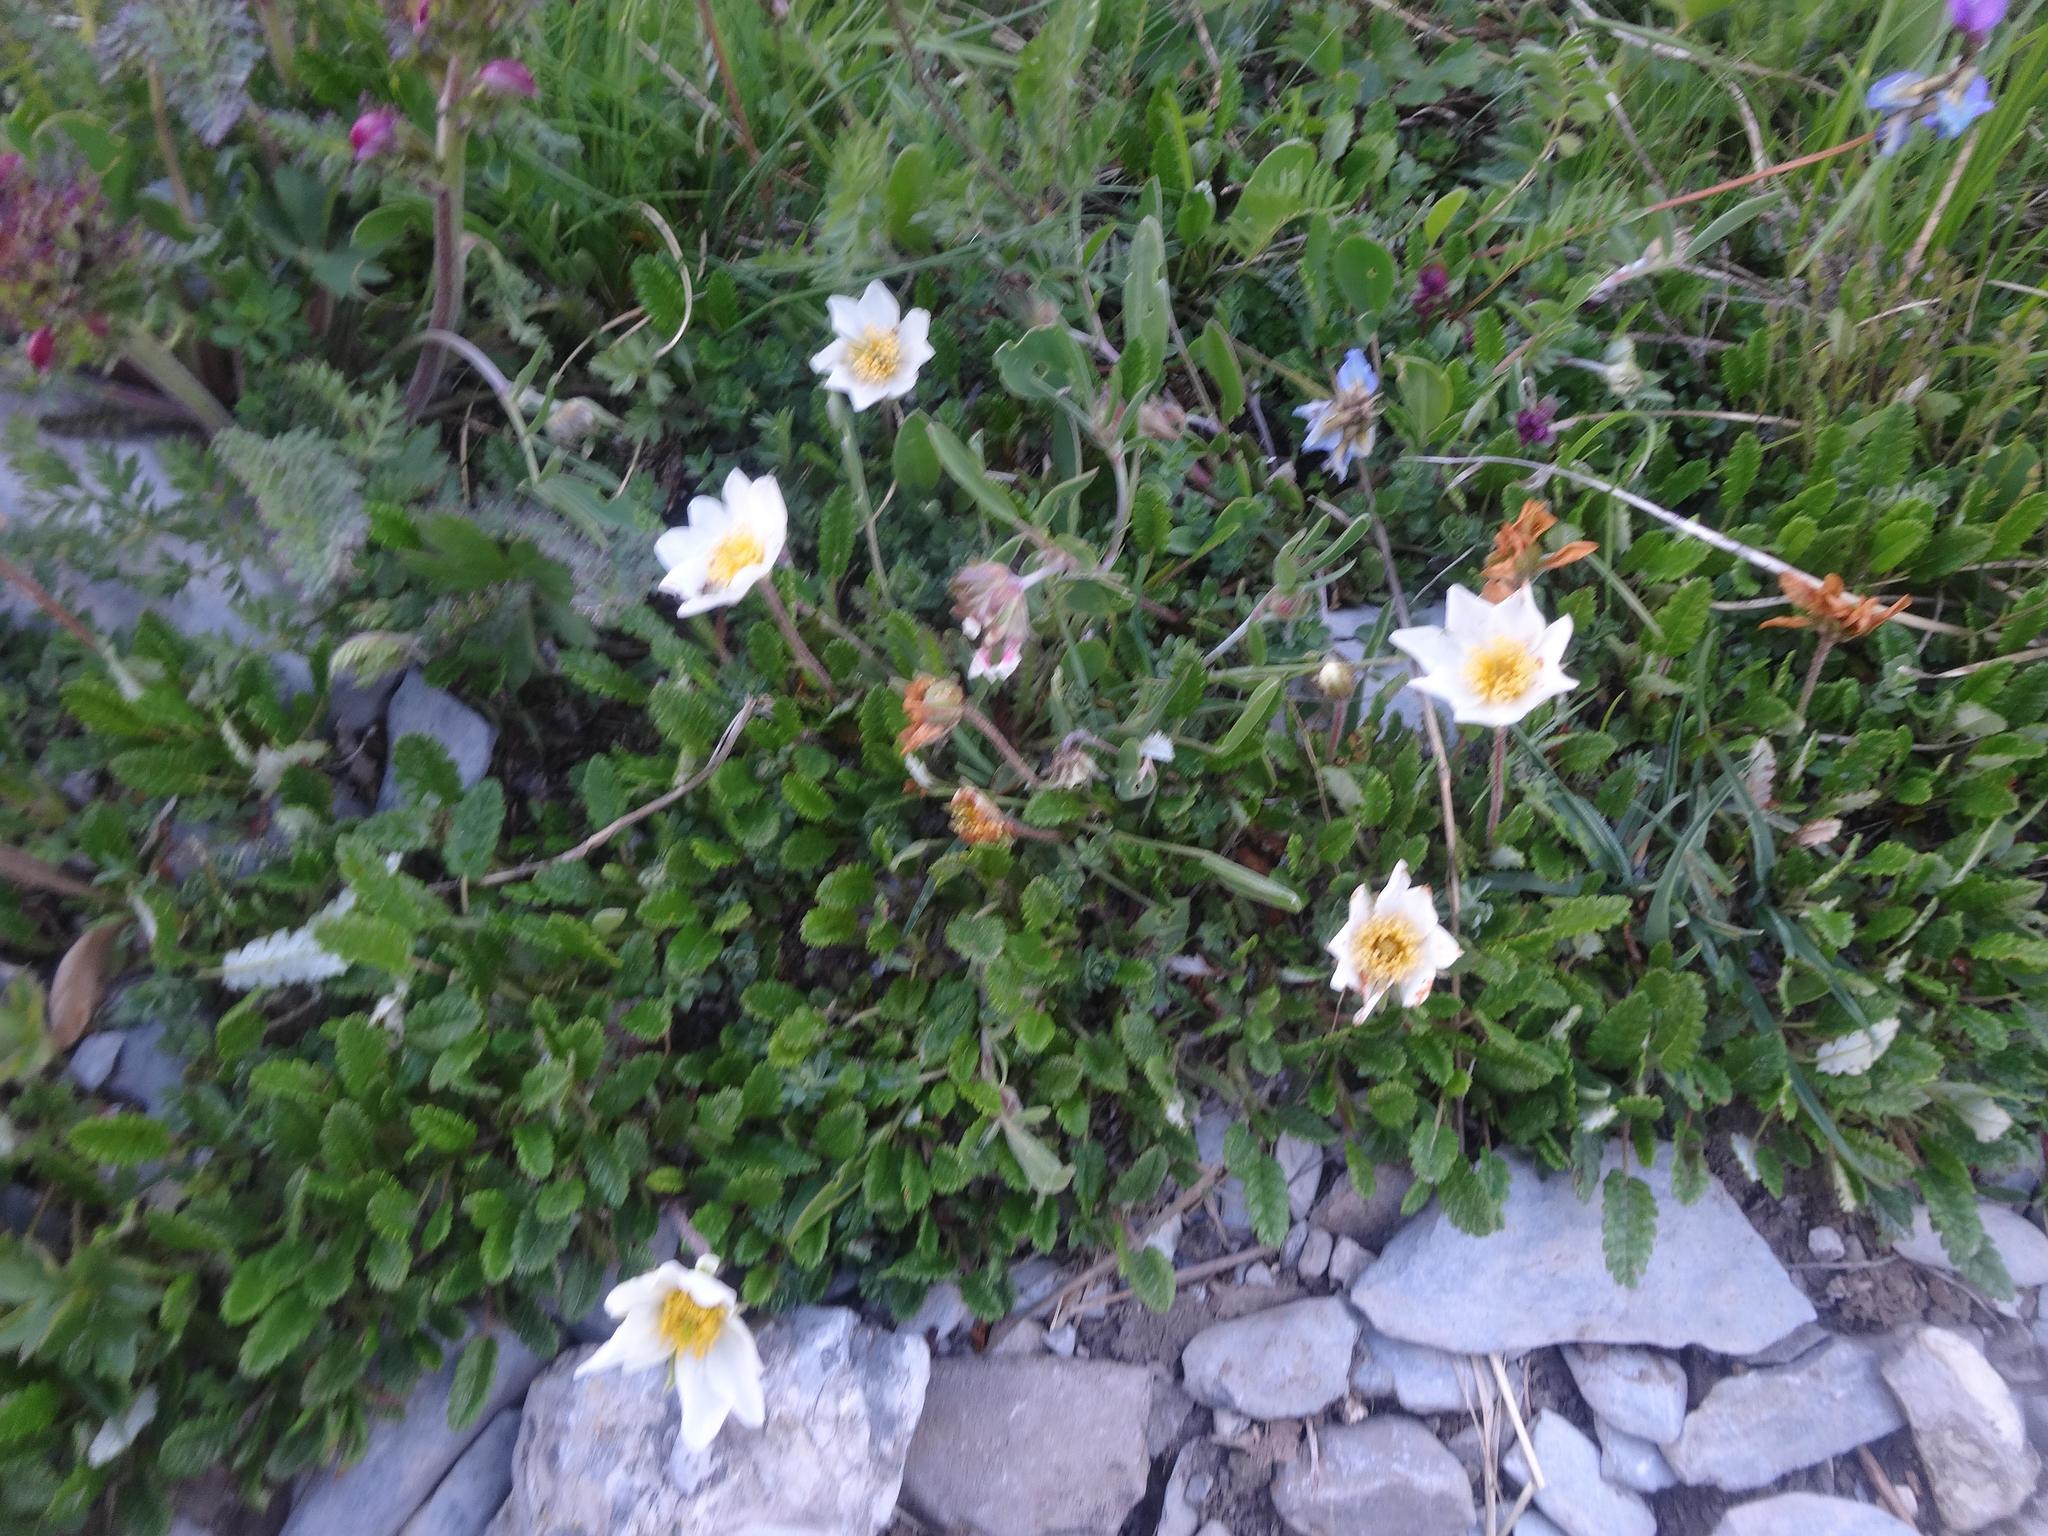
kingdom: Plantae
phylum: Tracheophyta
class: Magnoliopsida
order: Rosales
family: Rosaceae
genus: Dryas
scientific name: Dryas octopetala
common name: Eight-petal mountain-avens
